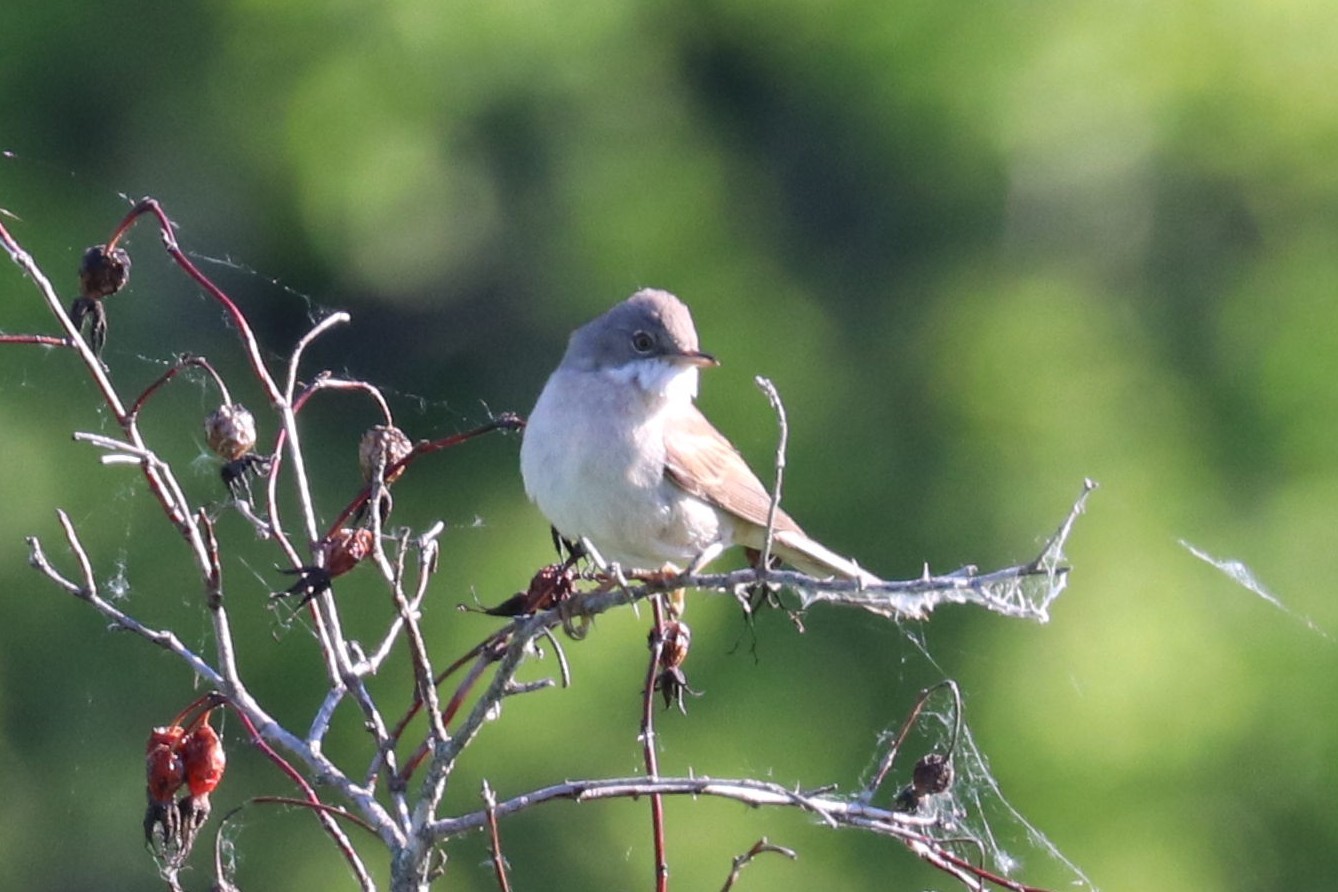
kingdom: Animalia
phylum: Chordata
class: Aves
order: Passeriformes
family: Sylviidae
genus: Sylvia
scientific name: Sylvia communis
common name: Common whitethroat
